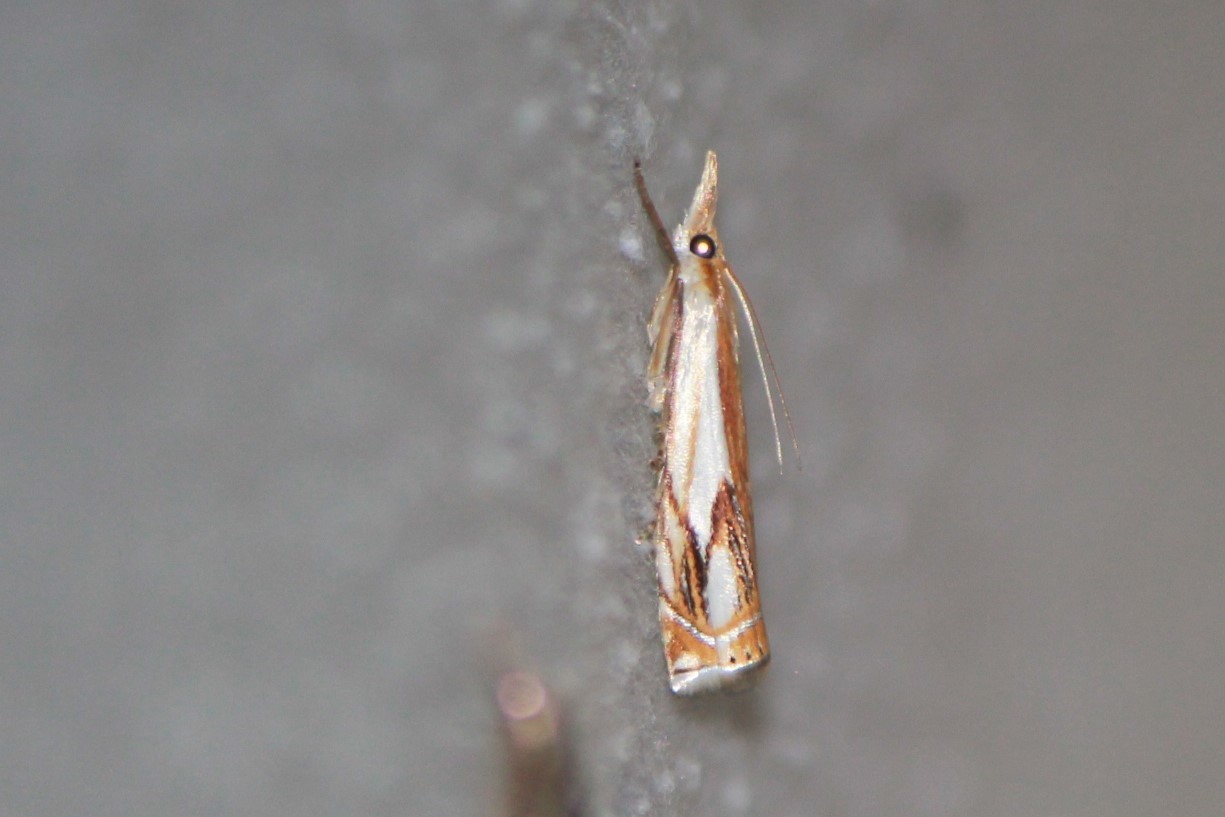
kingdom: Animalia
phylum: Arthropoda
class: Insecta
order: Lepidoptera
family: Crambidae
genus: Crambus
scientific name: Crambus agitatellus
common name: Double-banded grass-veneer
